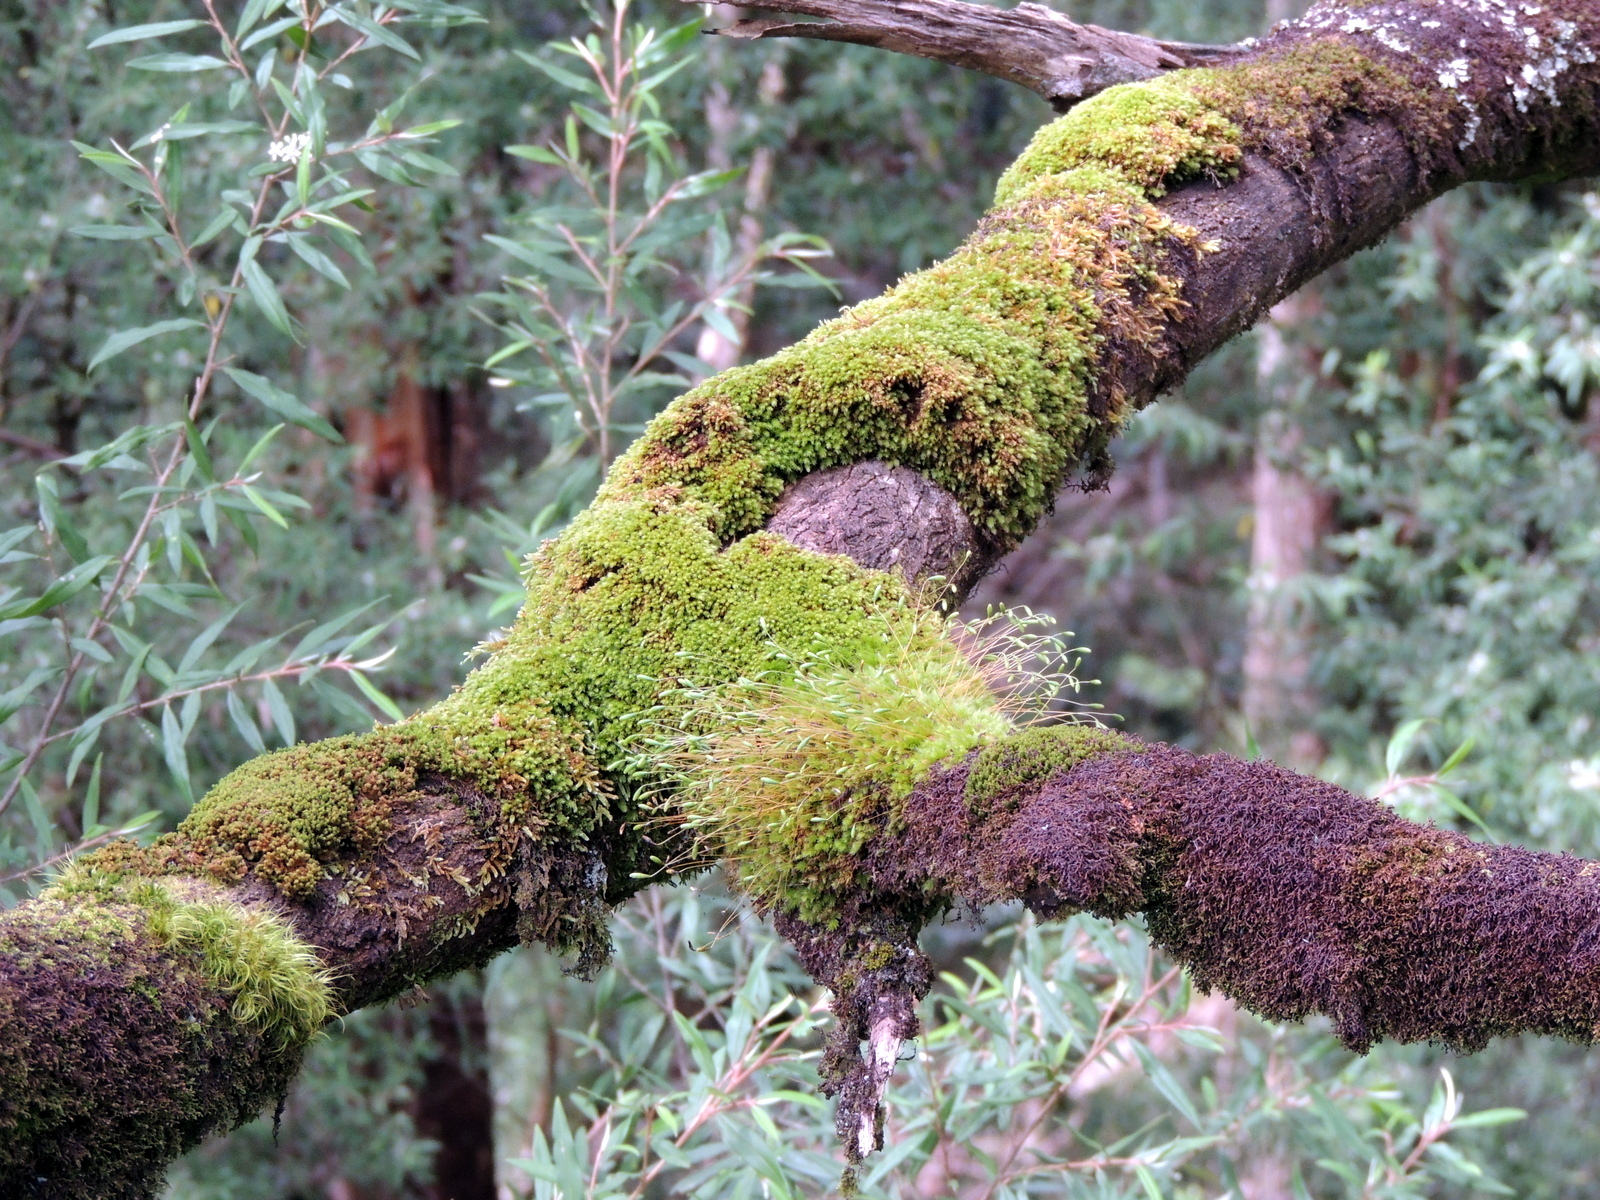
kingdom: Plantae
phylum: Bryophyta
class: Bryopsida
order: Bryales
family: Leptostomataceae
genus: Leptostomum
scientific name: Leptostomum inclinans
